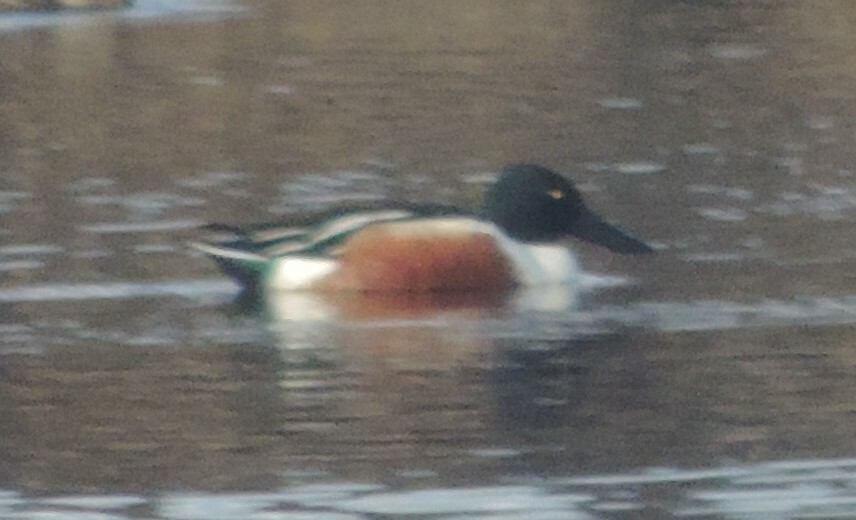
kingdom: Animalia
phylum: Chordata
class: Aves
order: Anseriformes
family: Anatidae
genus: Spatula
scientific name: Spatula clypeata
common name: Northern shoveler
